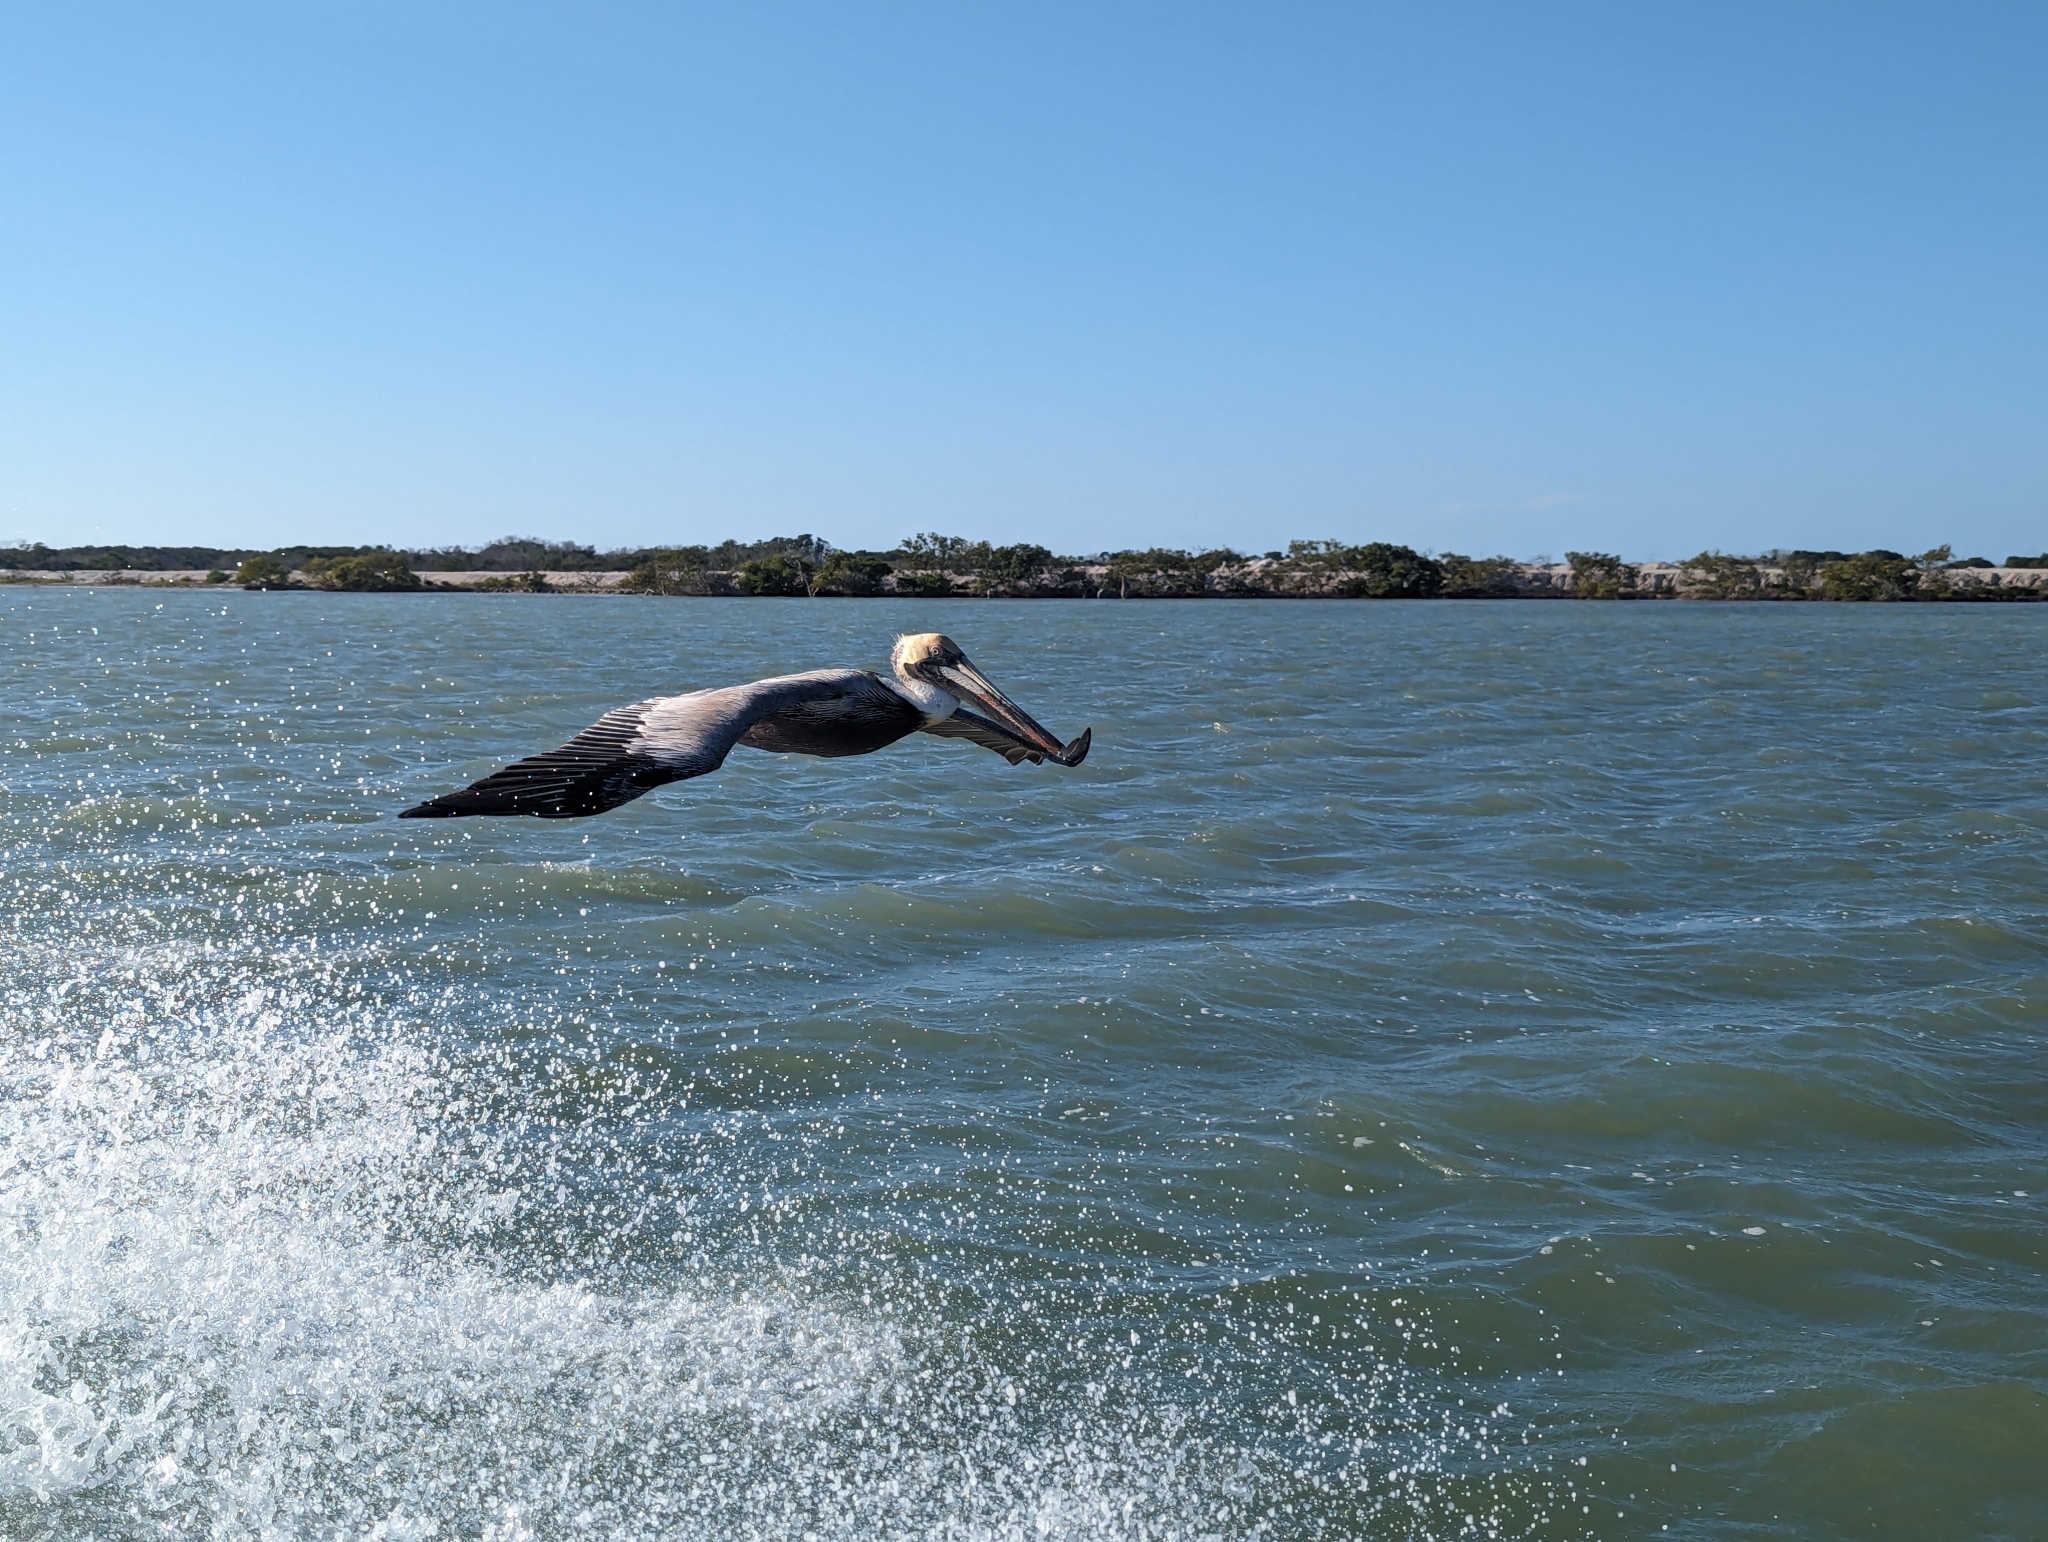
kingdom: Animalia
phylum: Chordata
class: Aves
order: Pelecaniformes
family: Pelecanidae
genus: Pelecanus
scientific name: Pelecanus occidentalis
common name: Brown pelican
